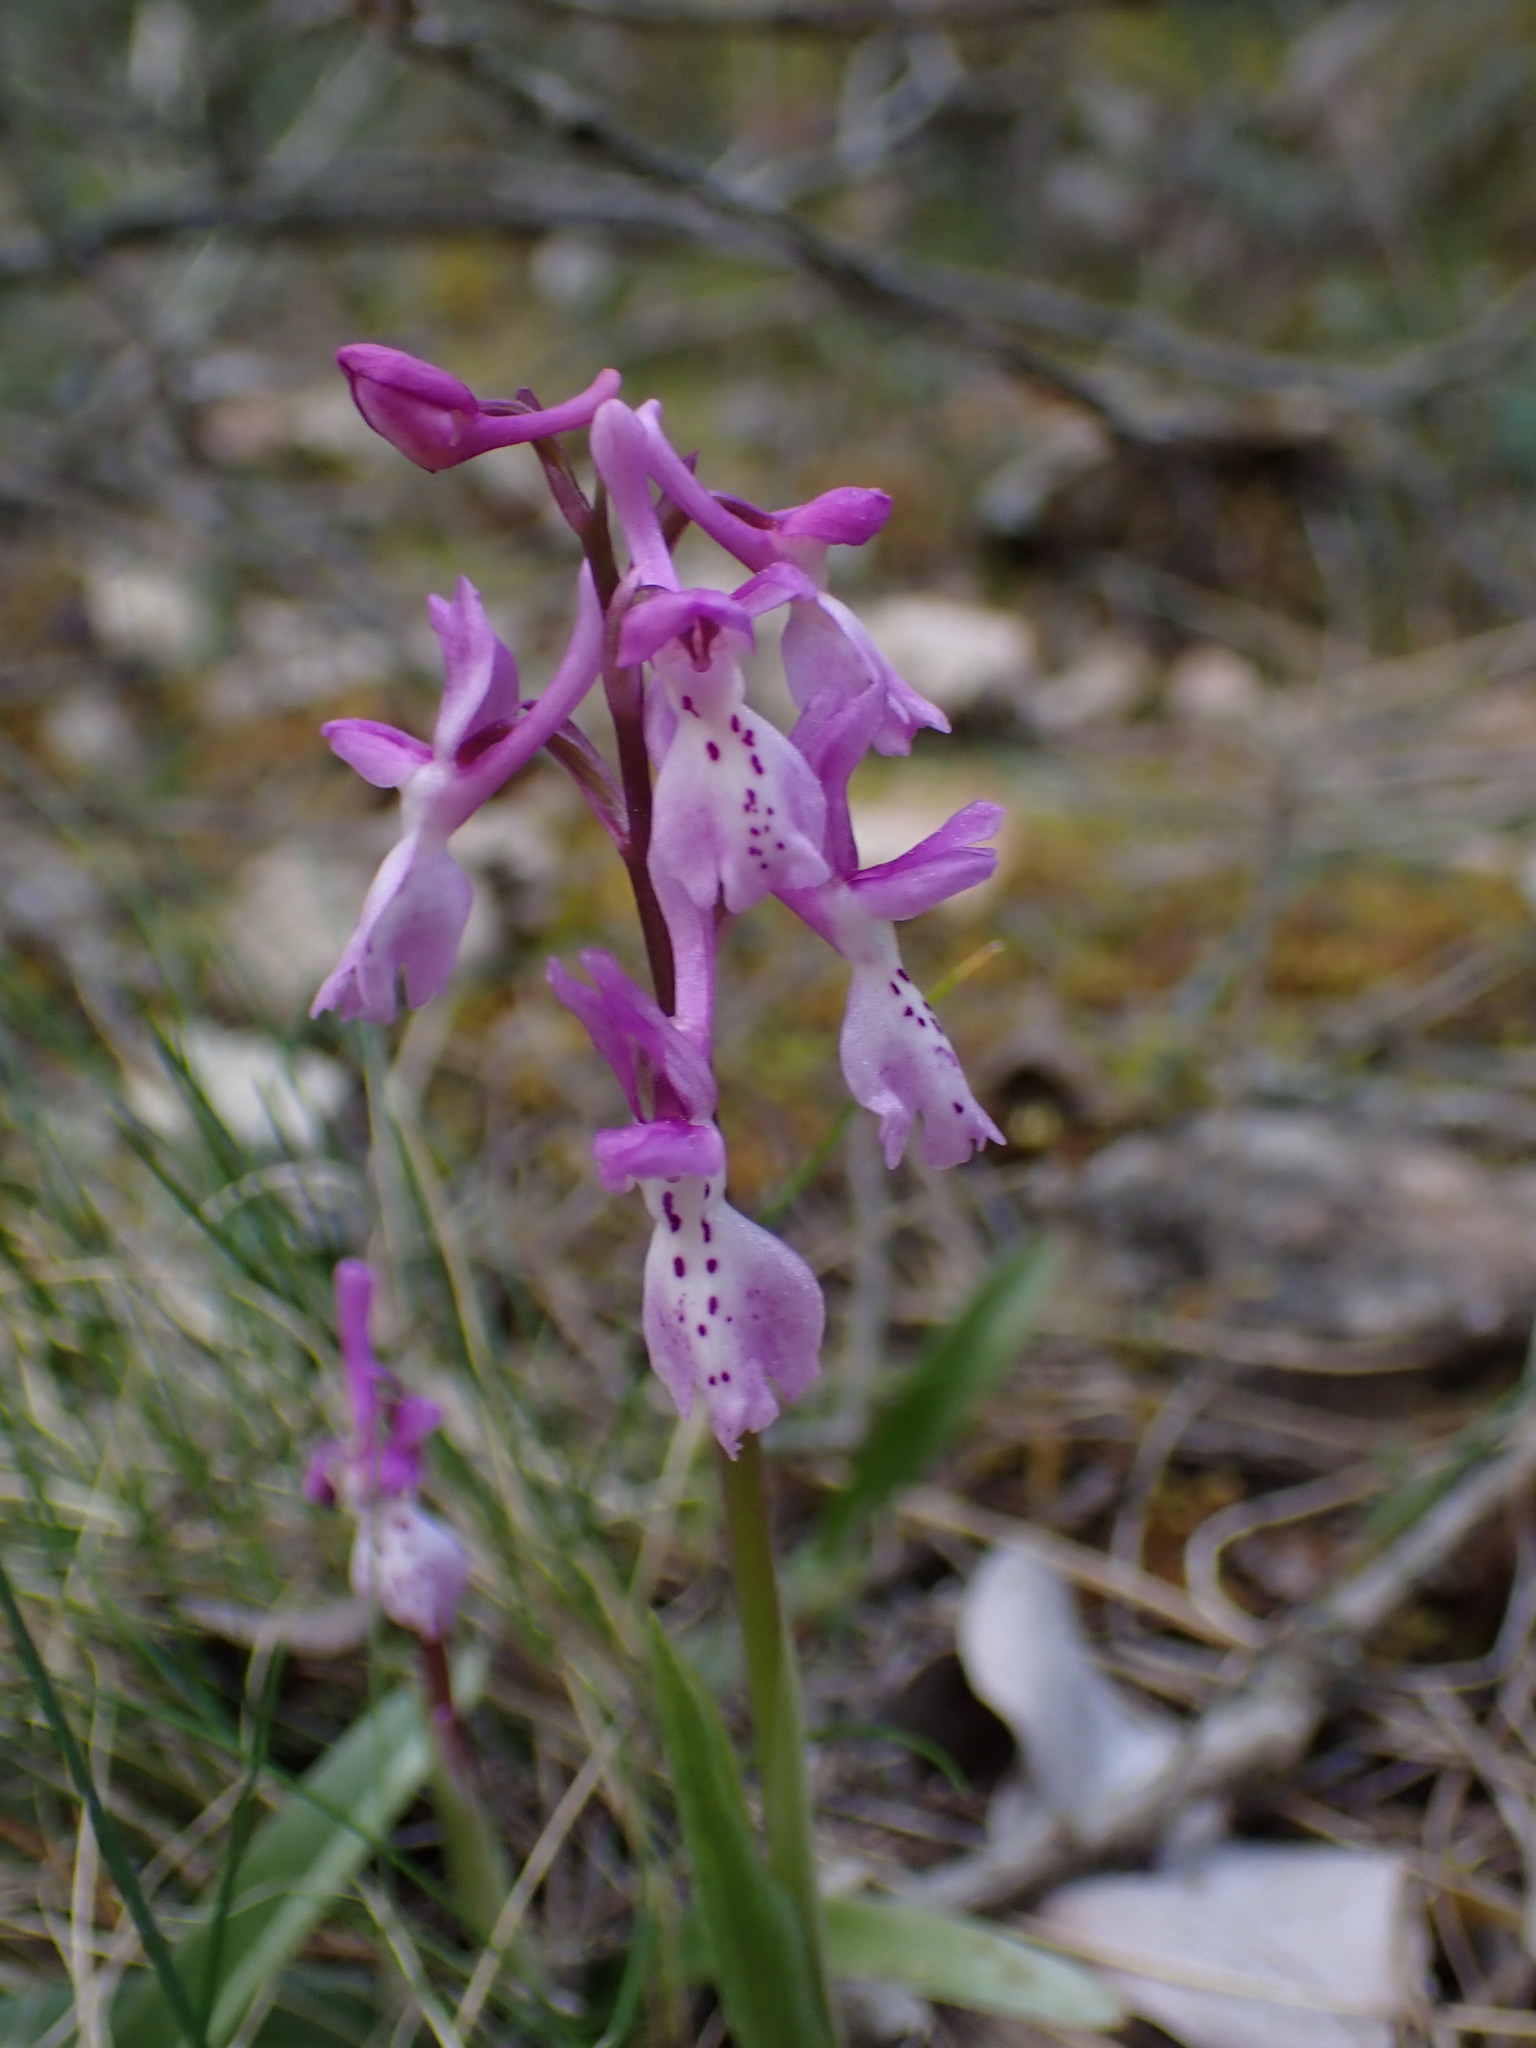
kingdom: Plantae
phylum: Tracheophyta
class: Liliopsida
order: Asparagales
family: Orchidaceae
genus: Orchis
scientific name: Orchis olbiensis
